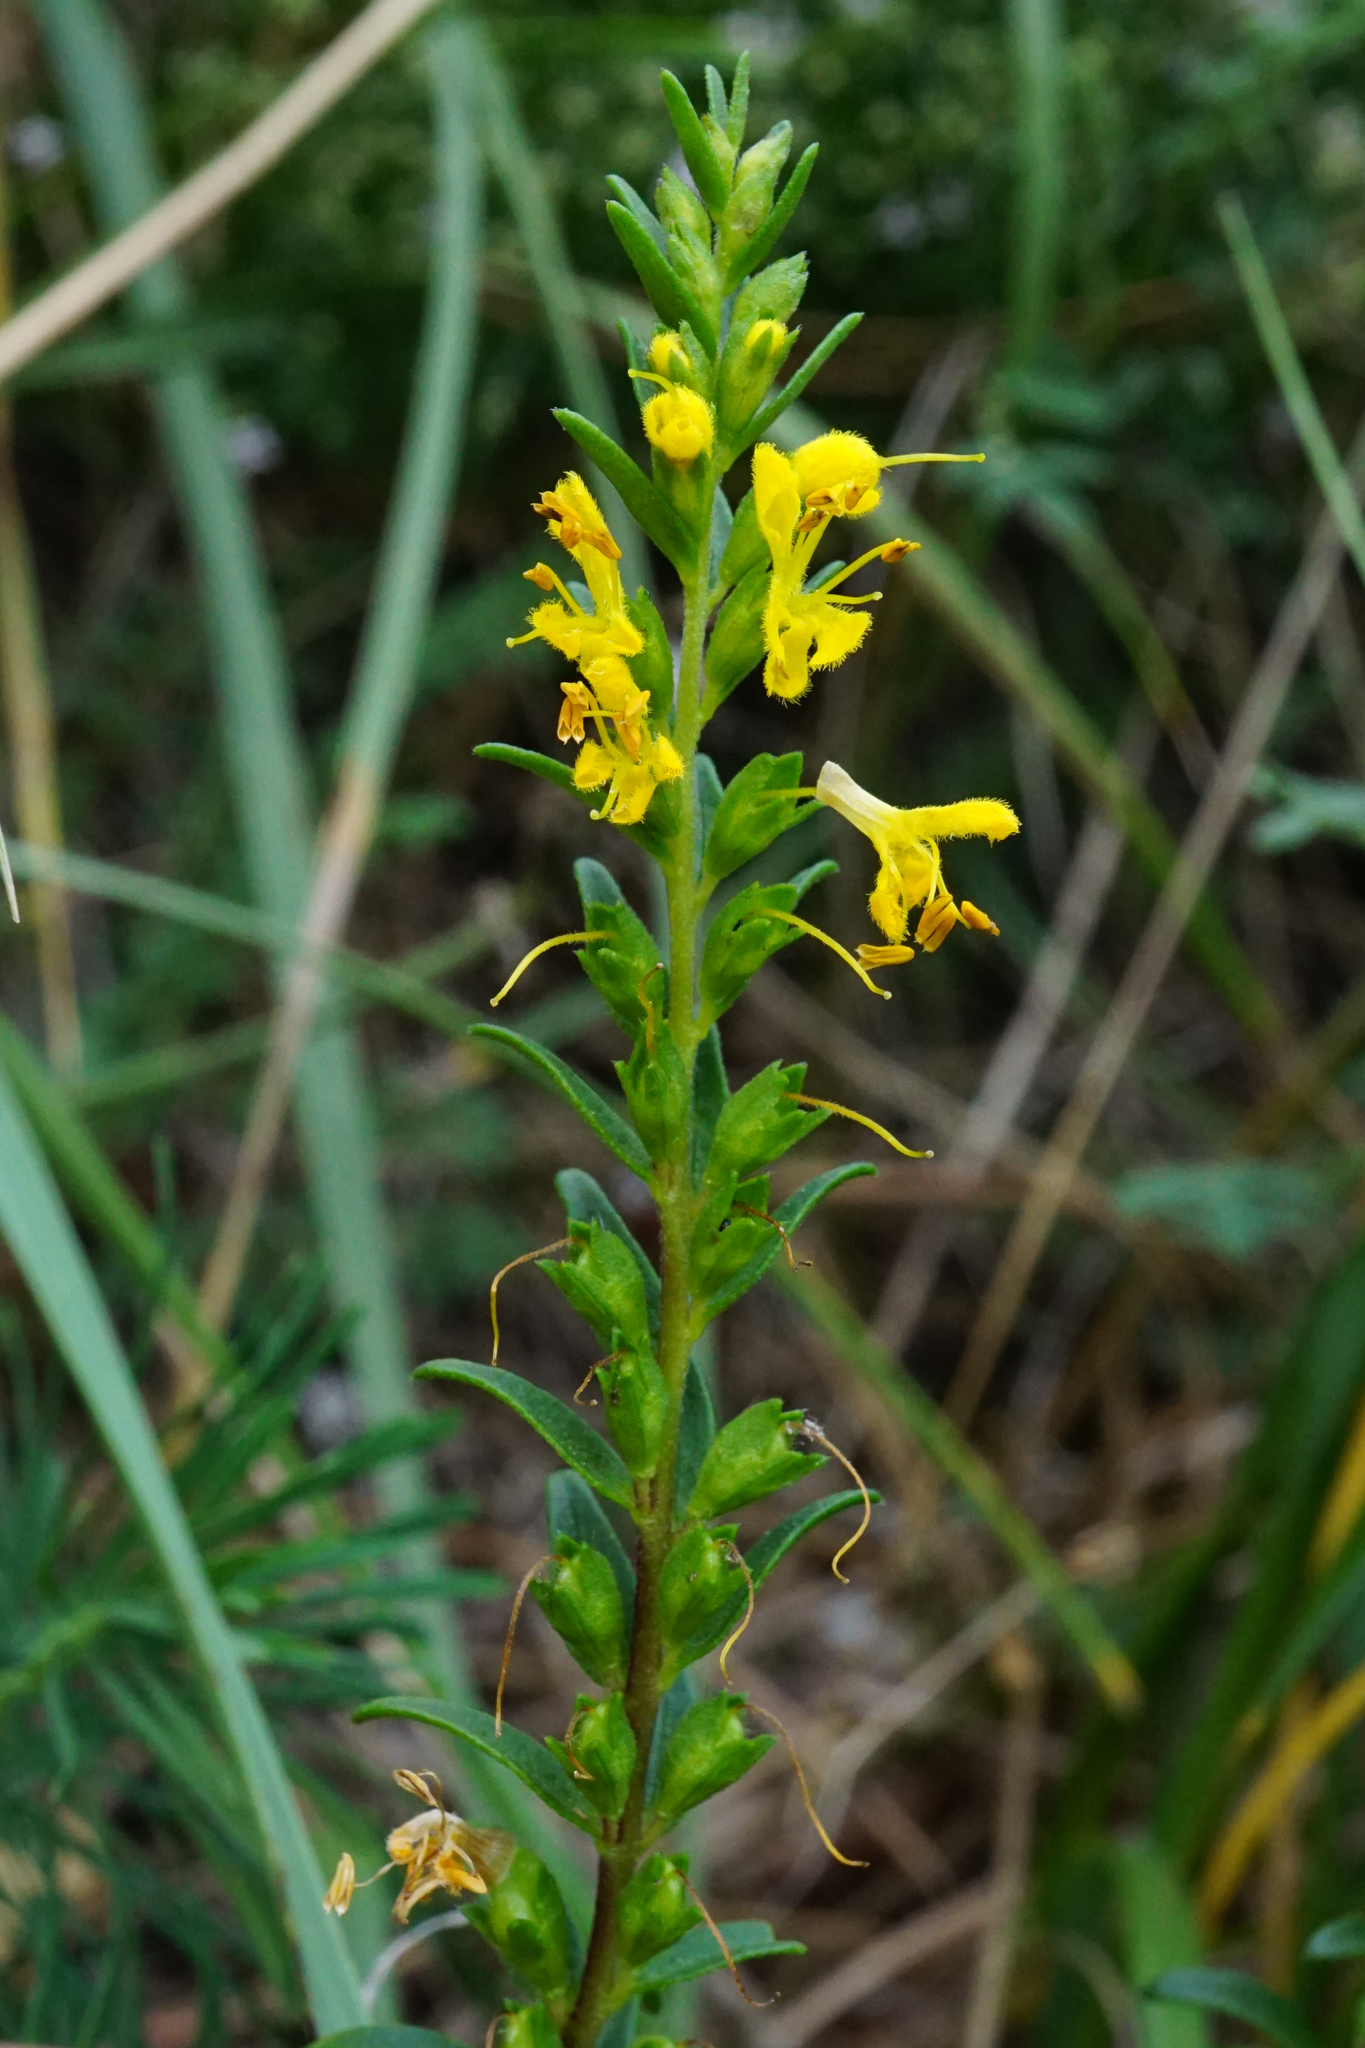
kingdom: Plantae
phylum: Tracheophyta
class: Magnoliopsida
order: Lamiales
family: Orobanchaceae
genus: Odontites
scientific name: Odontites luteus
